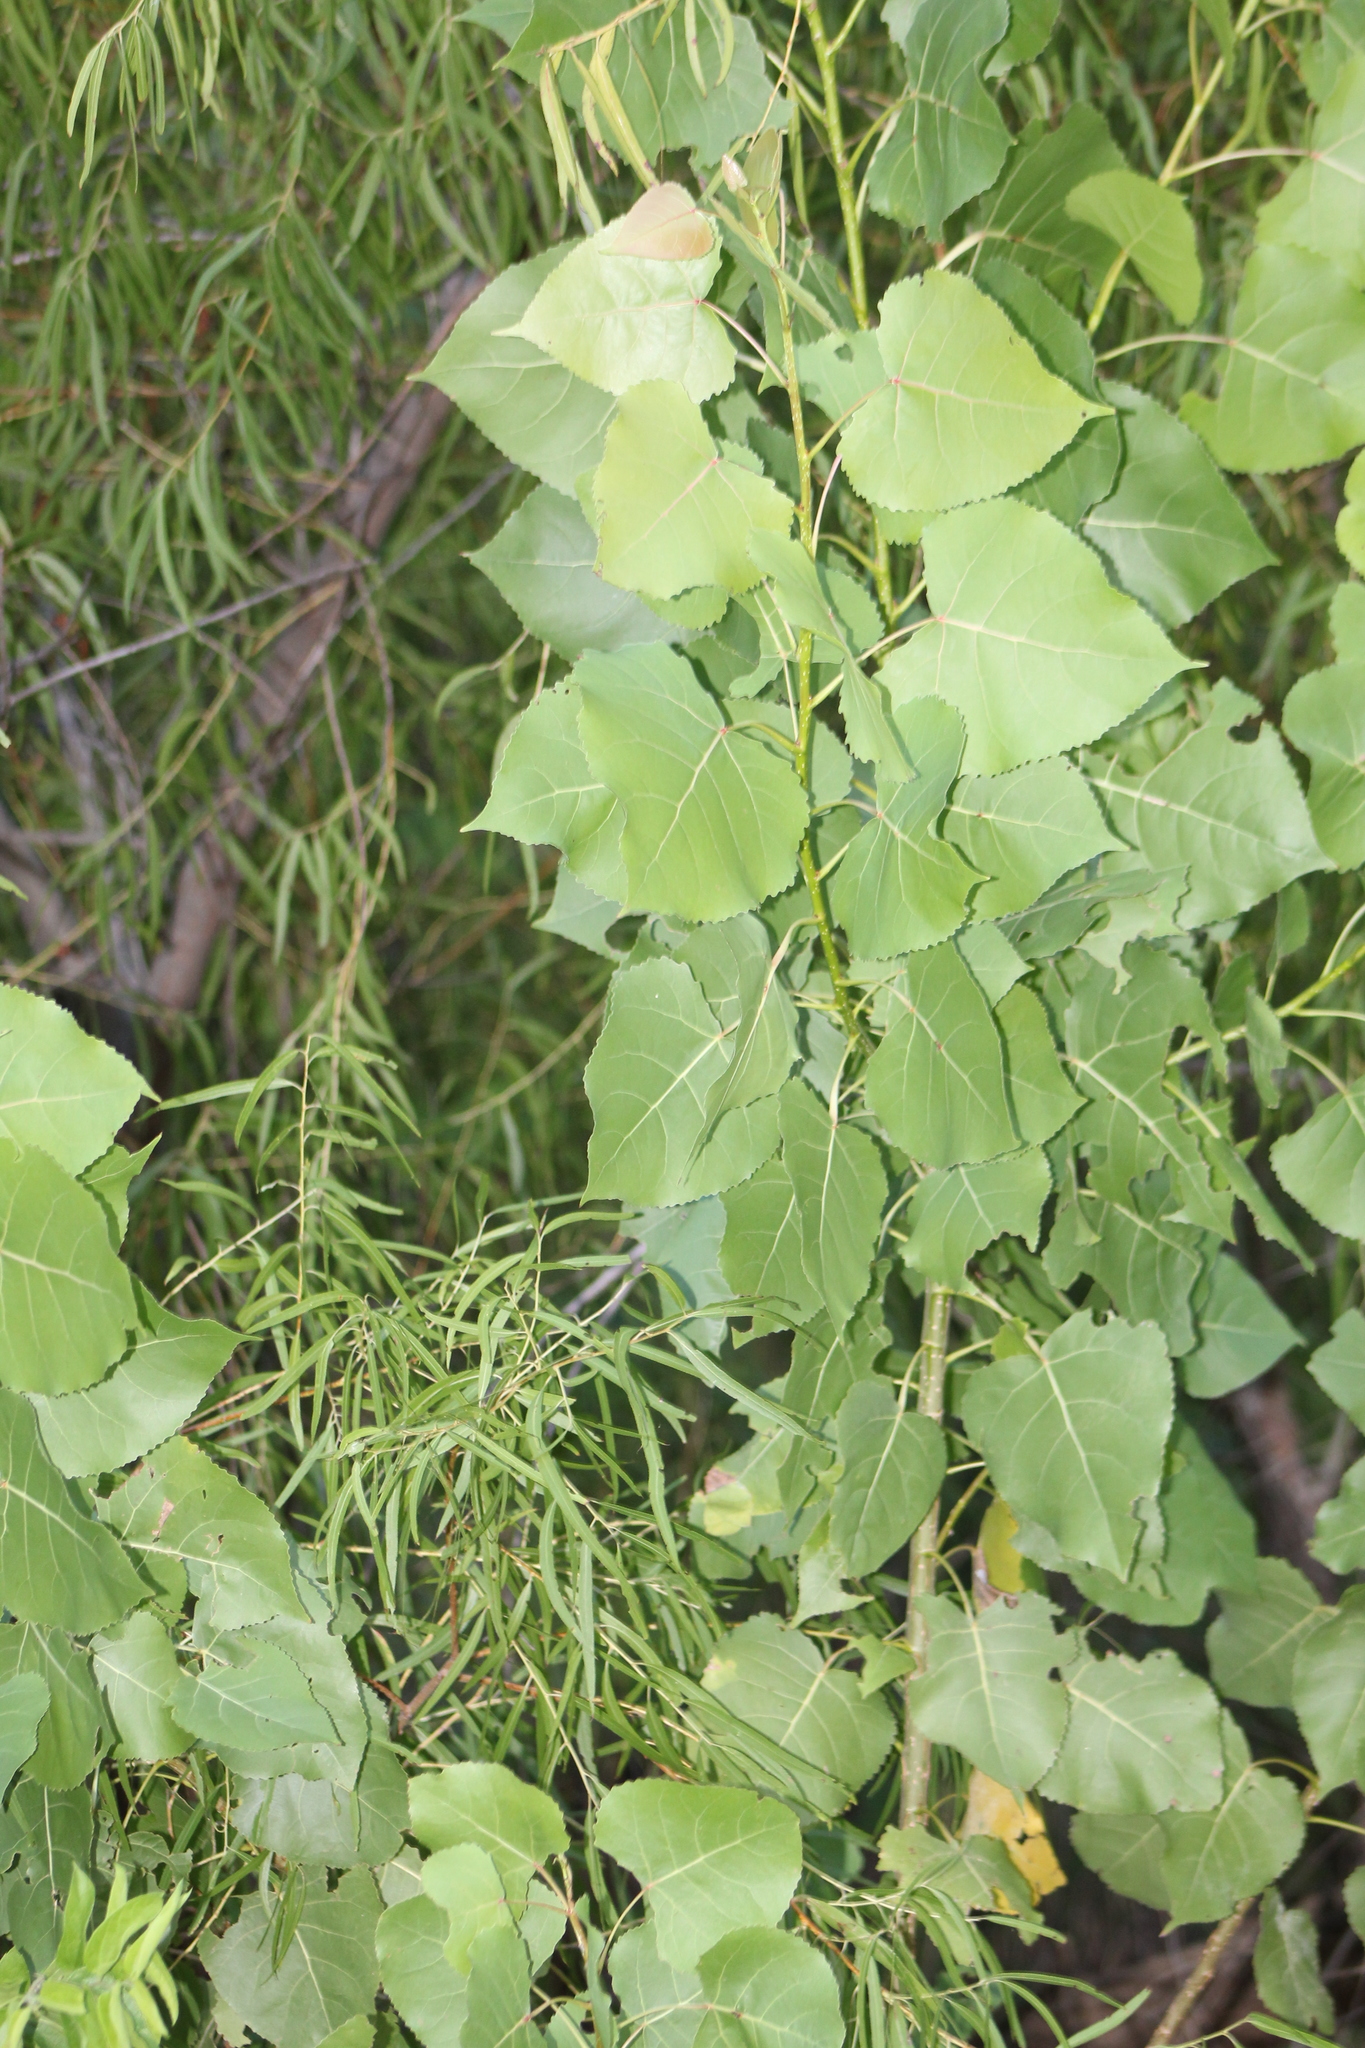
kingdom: Plantae
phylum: Tracheophyta
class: Magnoliopsida
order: Malpighiales
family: Salicaceae
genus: Populus
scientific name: Populus deltoides
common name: Eastern cottonwood
